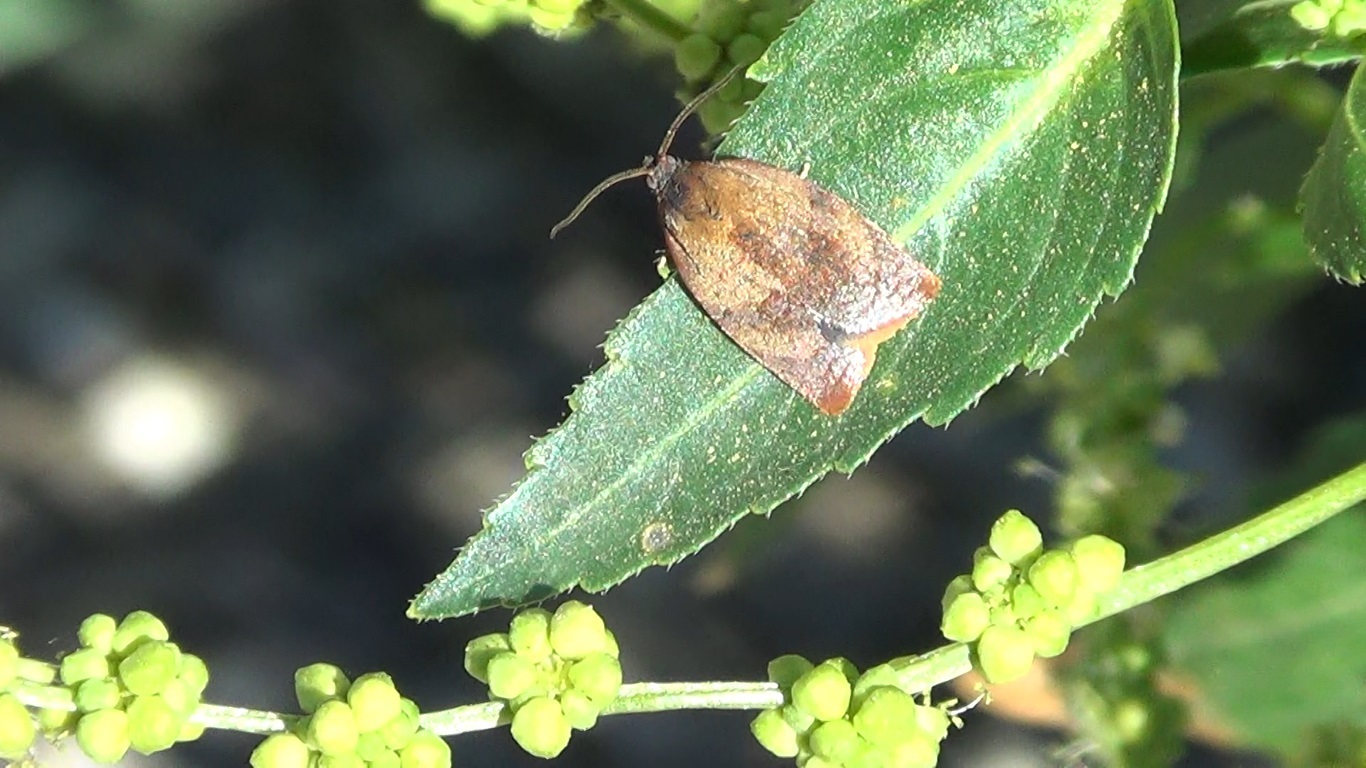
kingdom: Animalia
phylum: Arthropoda
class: Insecta
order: Lepidoptera
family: Tortricidae
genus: Cacoecimorpha
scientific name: Cacoecimorpha pronubana
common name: Carnation tortrix
